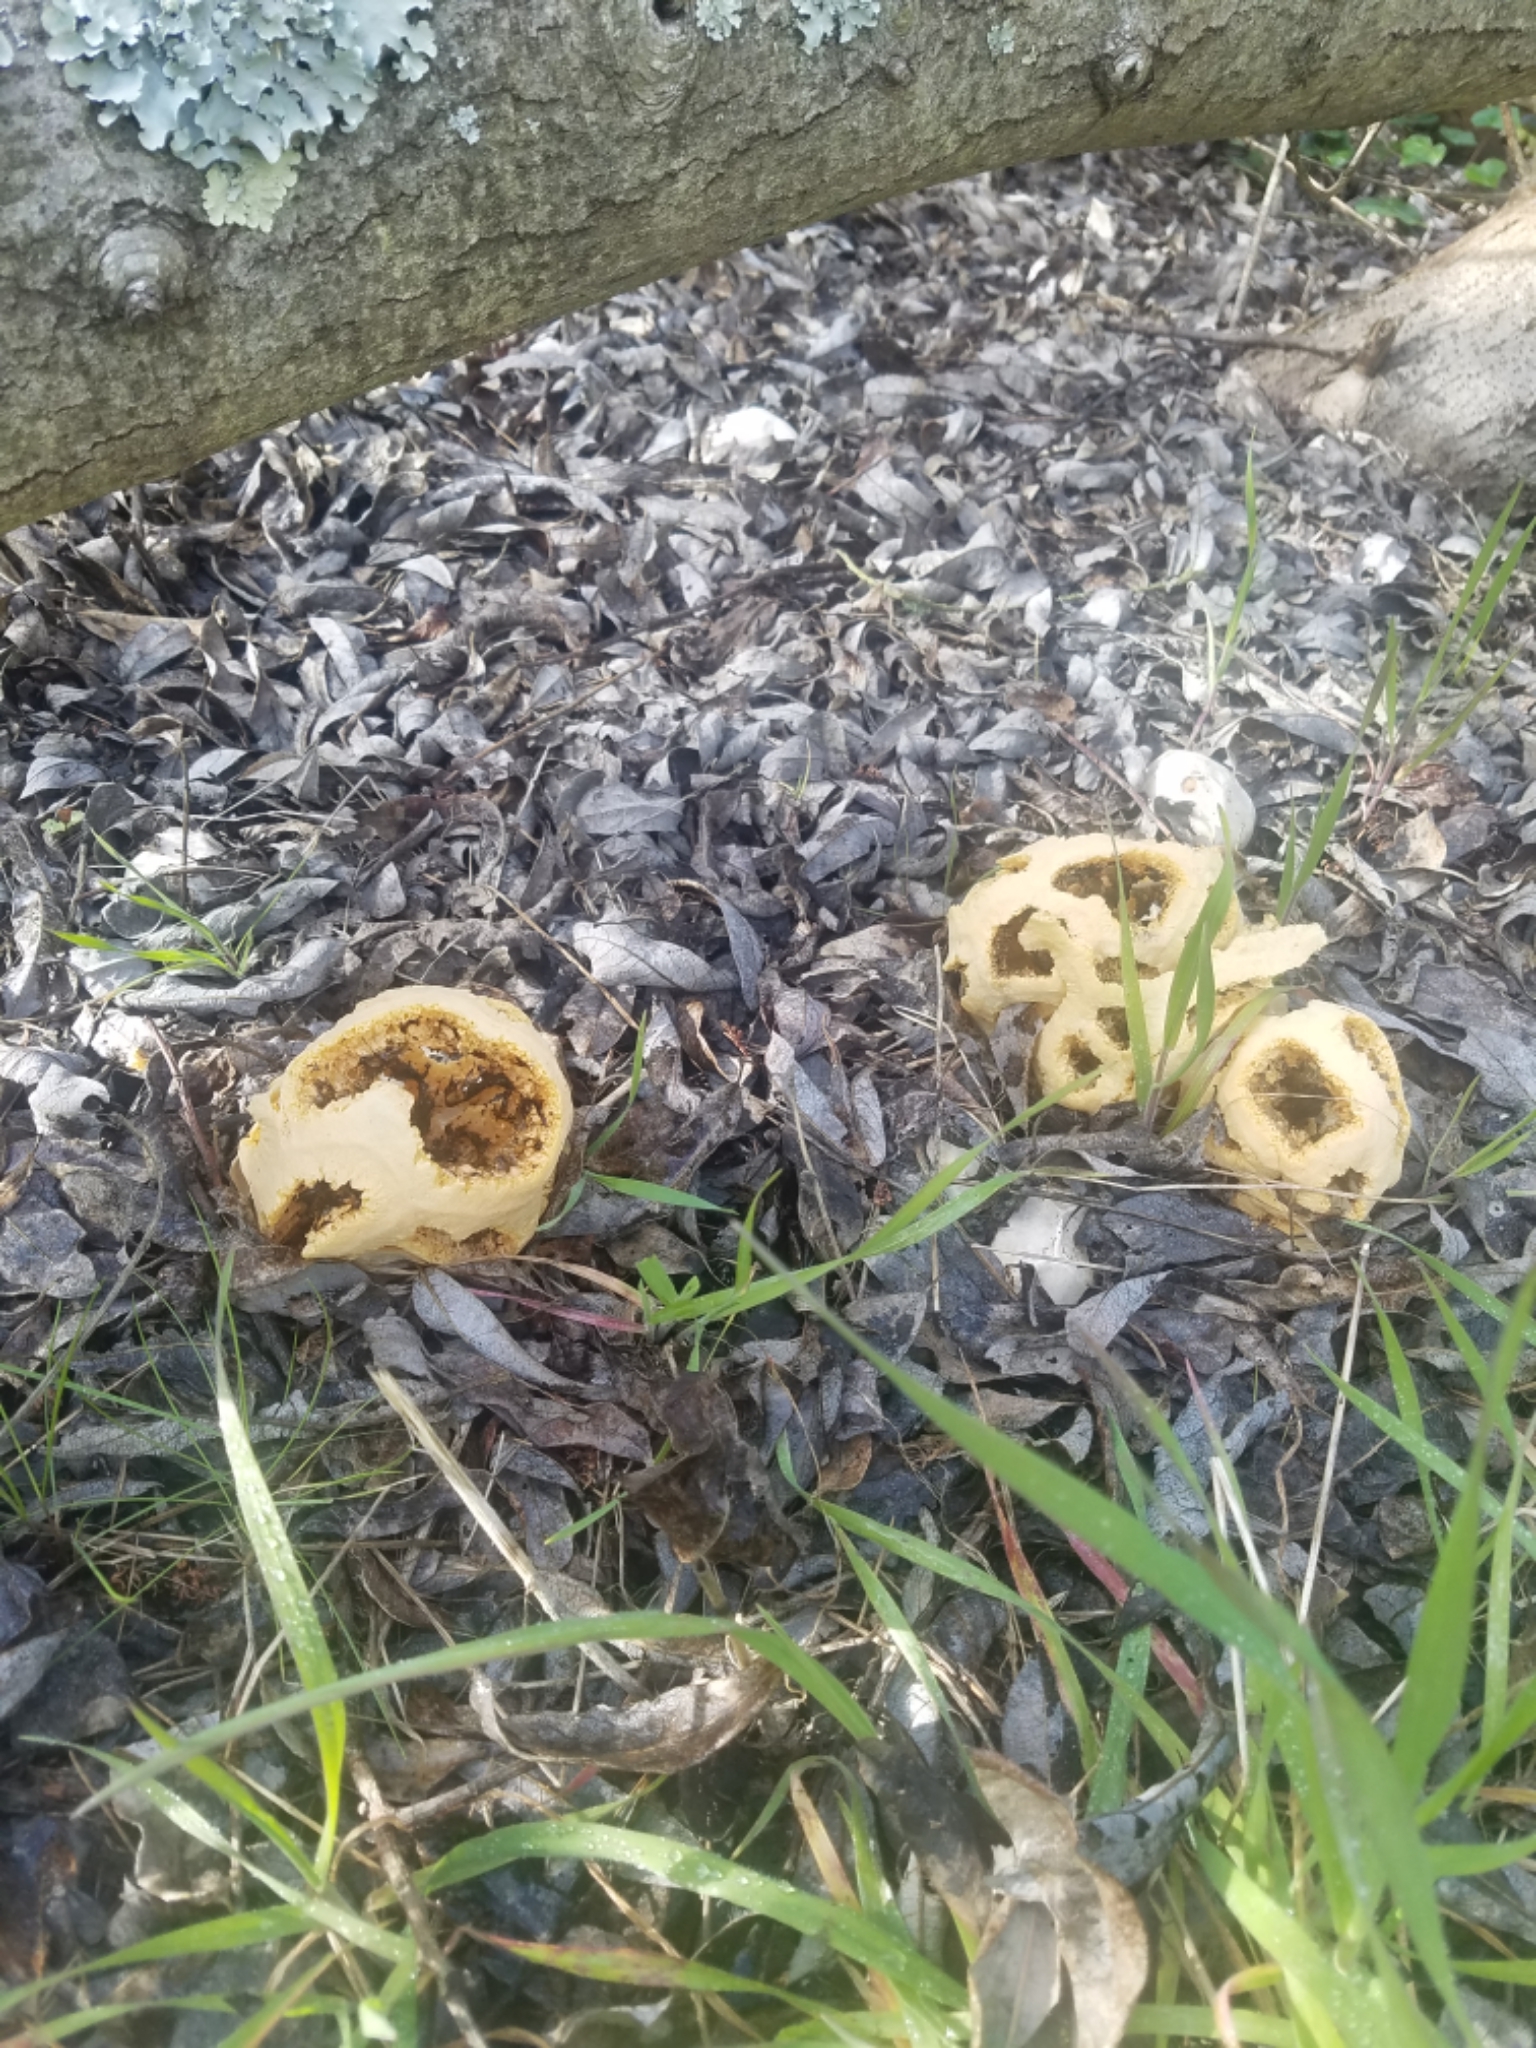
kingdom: Fungi
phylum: Basidiomycota
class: Agaricomycetes
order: Phallales
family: Phallaceae
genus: Clathrus
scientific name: Clathrus ruber
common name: Red cage
